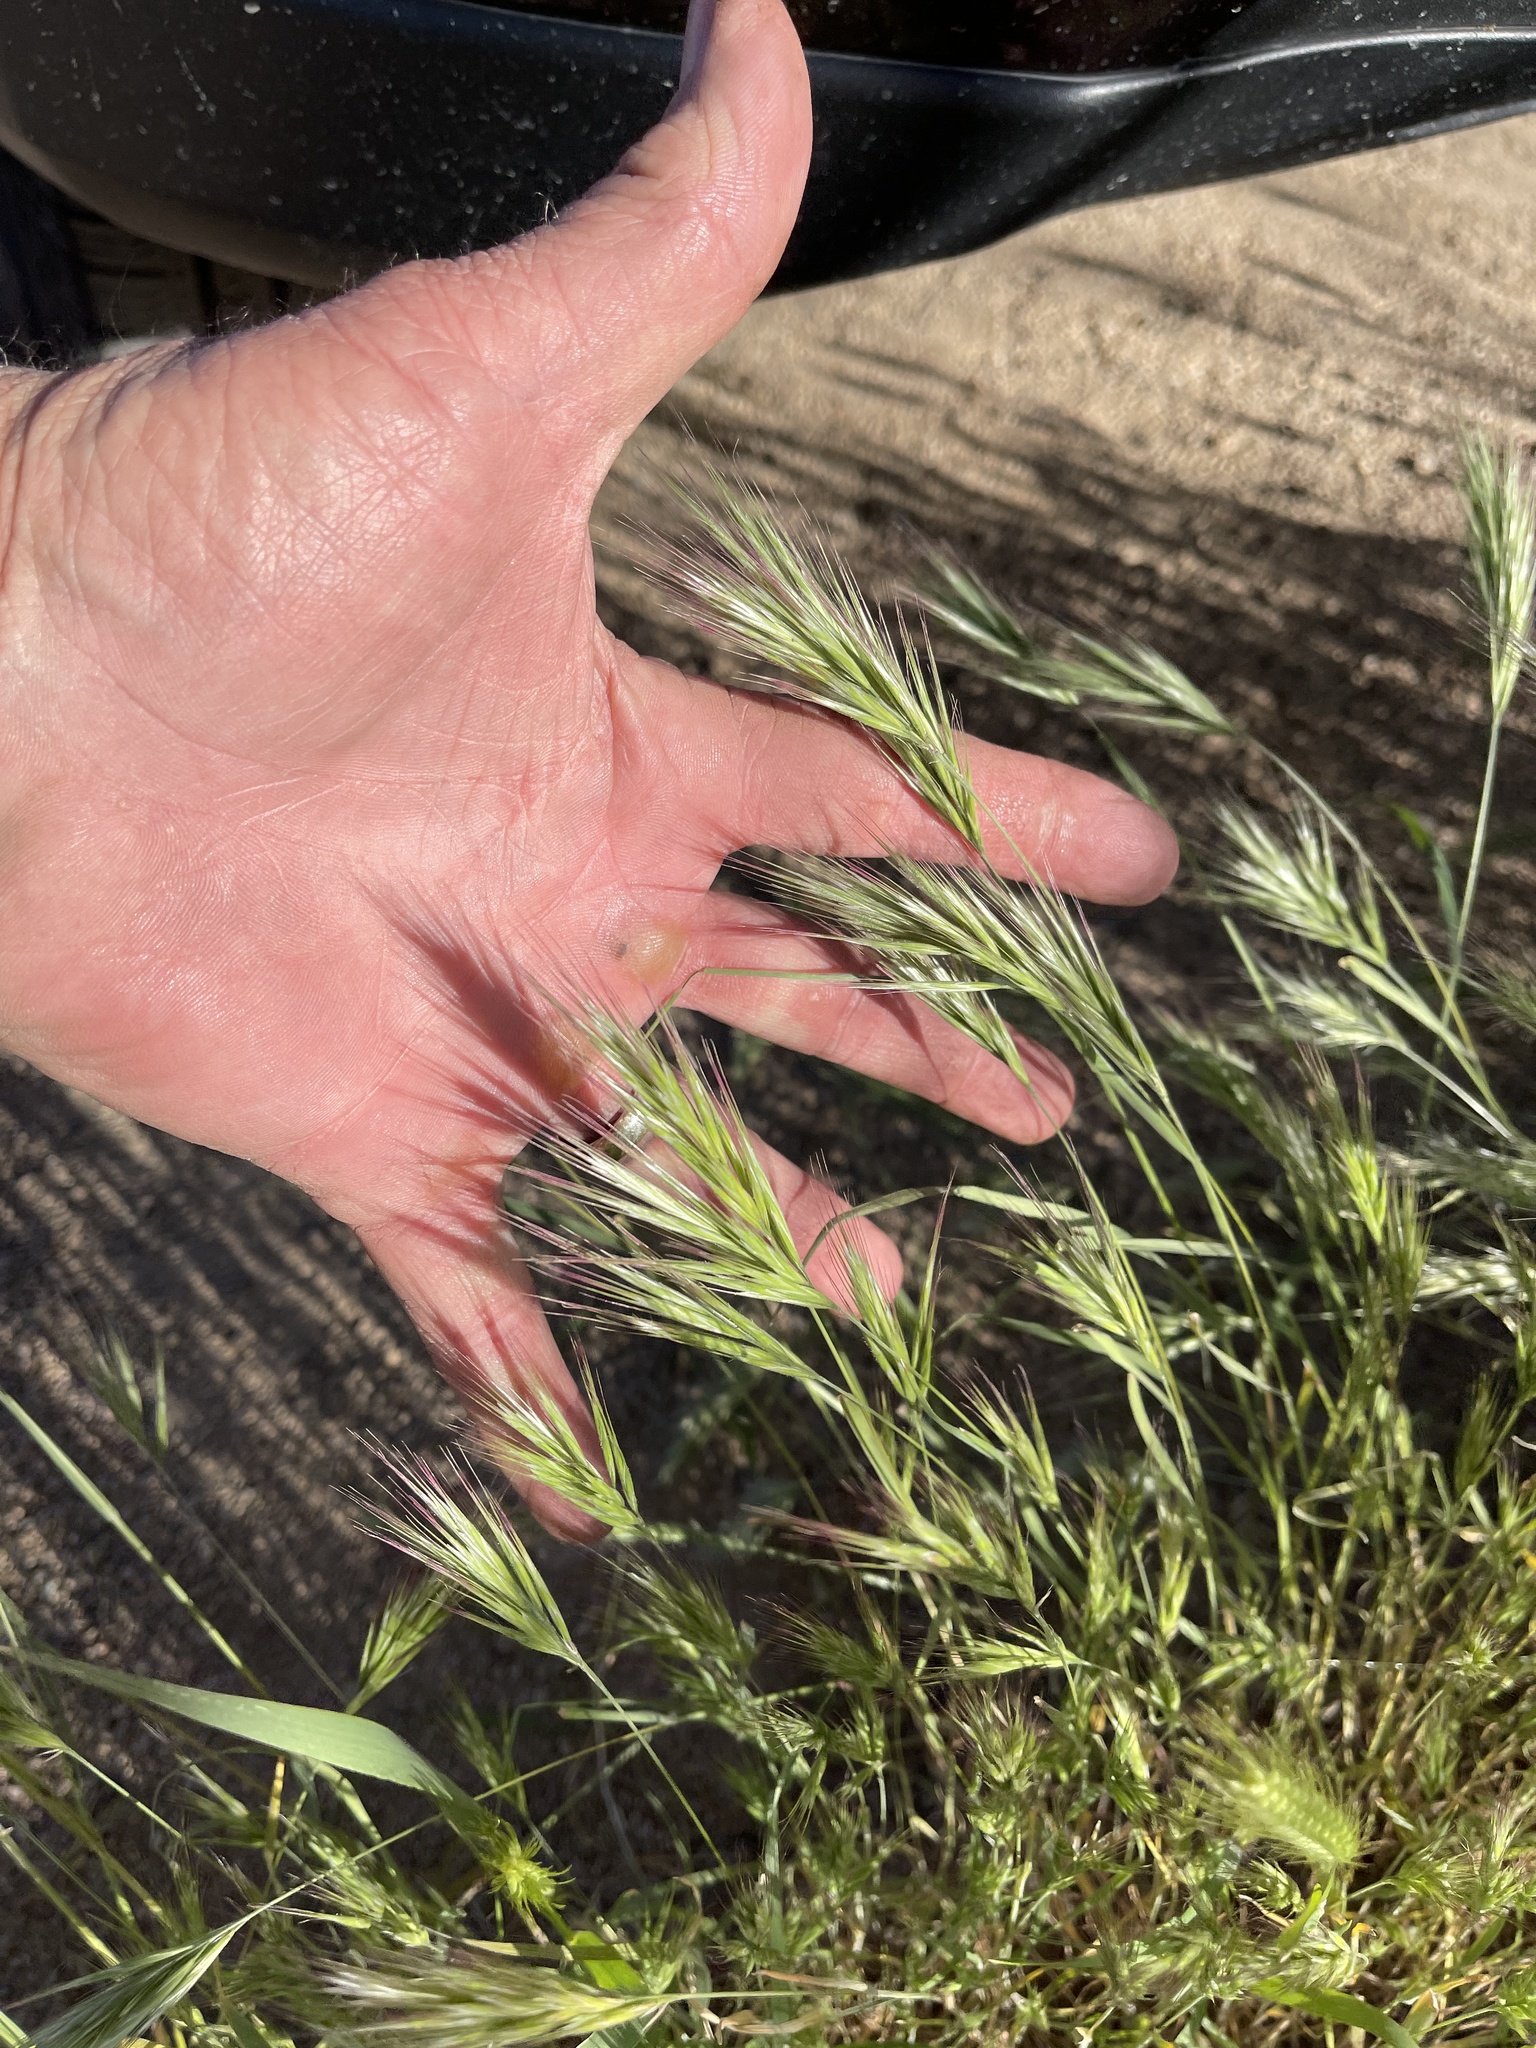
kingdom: Plantae
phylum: Tracheophyta
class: Liliopsida
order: Poales
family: Poaceae
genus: Bromus
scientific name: Bromus rubens
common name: Red brome
